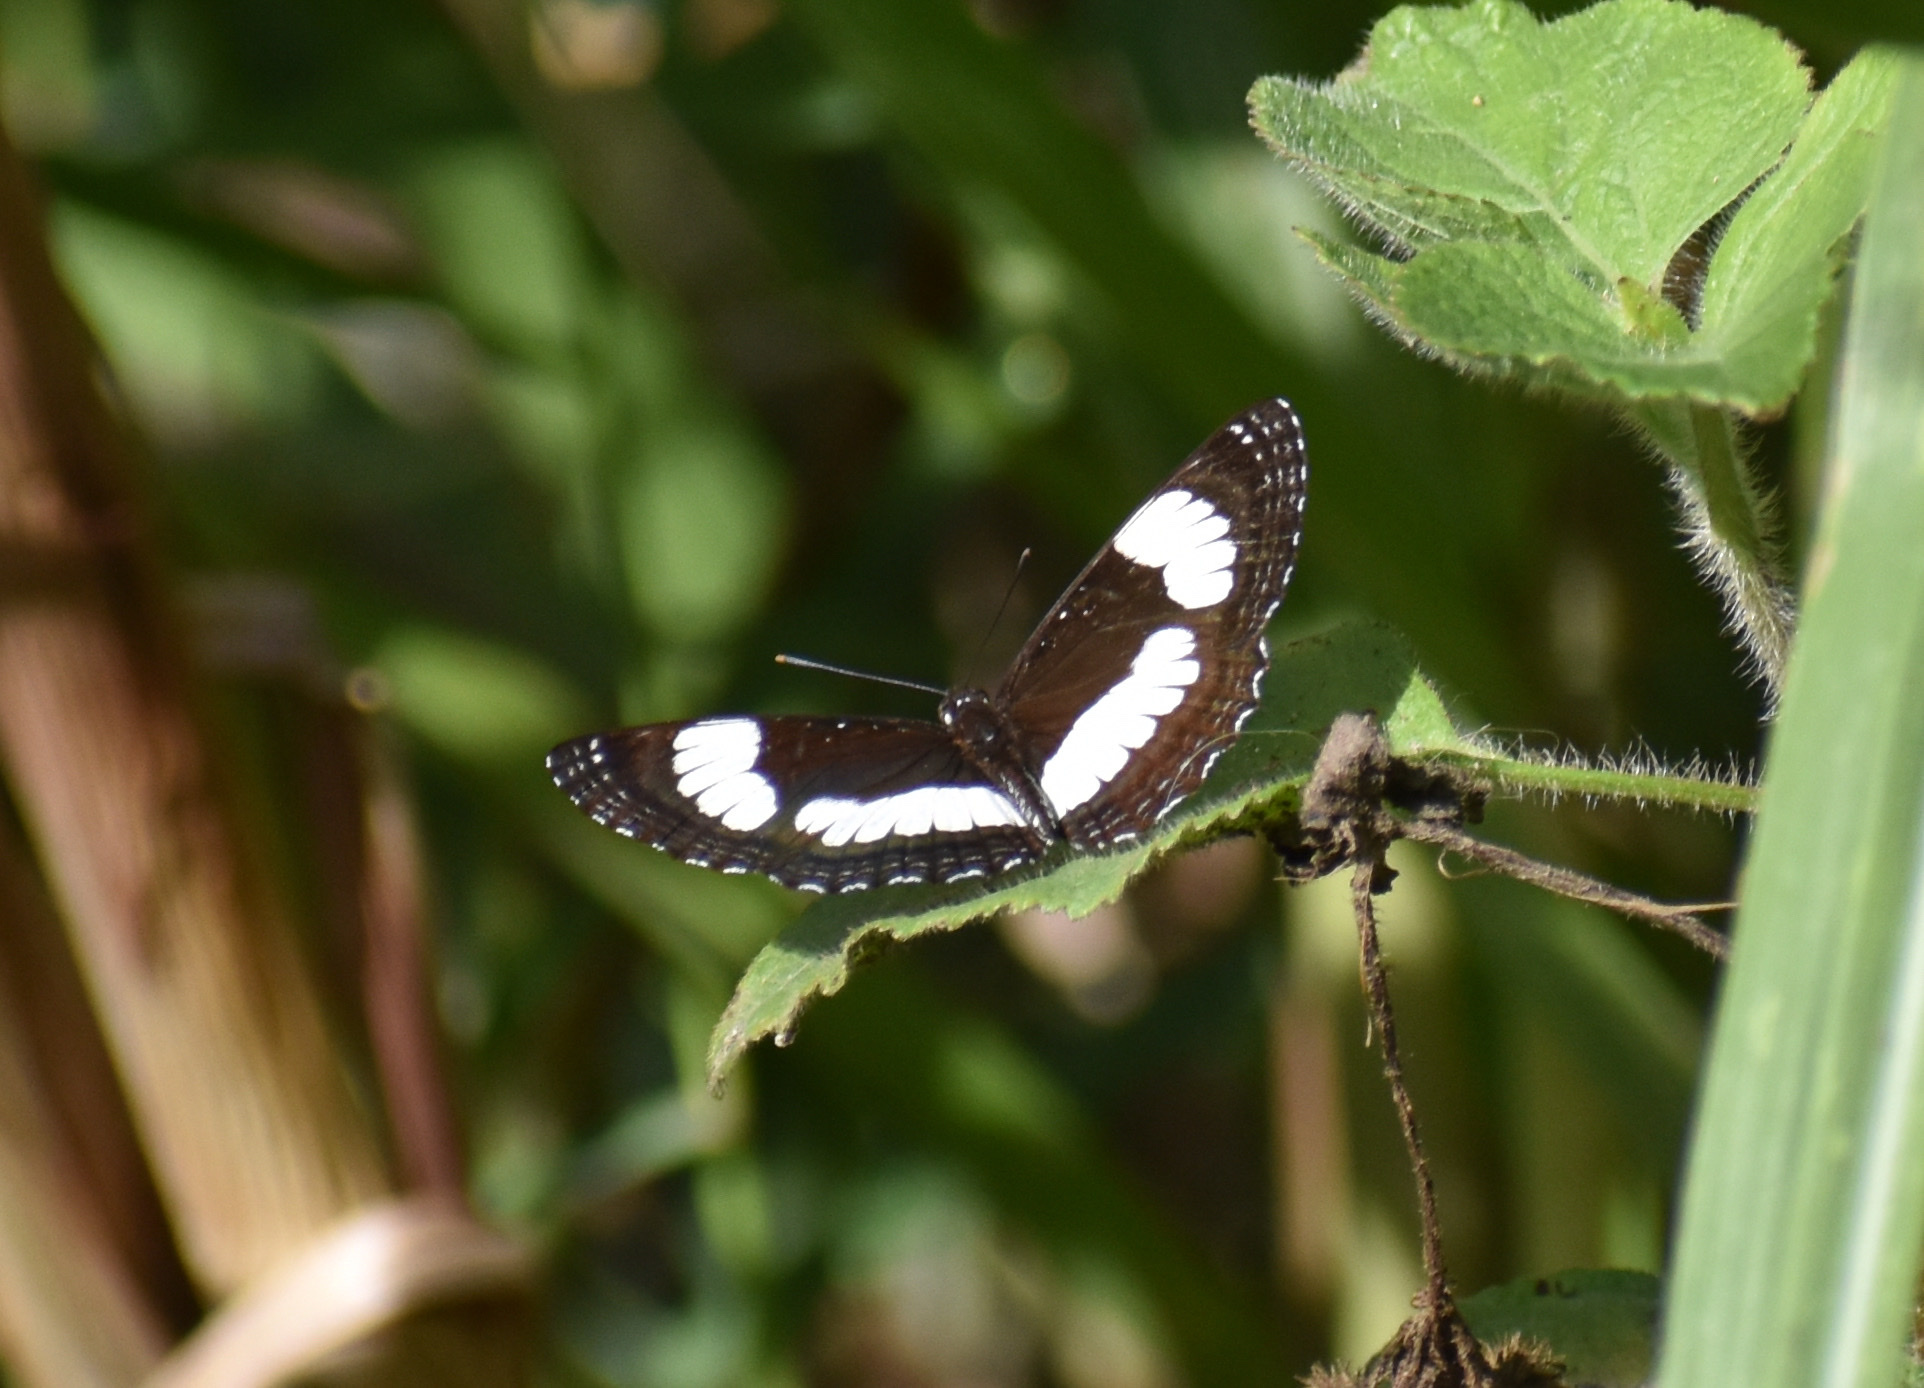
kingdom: Animalia
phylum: Arthropoda
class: Insecta
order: Lepidoptera
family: Nymphalidae
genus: Neptis
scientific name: Neptis laeta
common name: Common barred sailor
